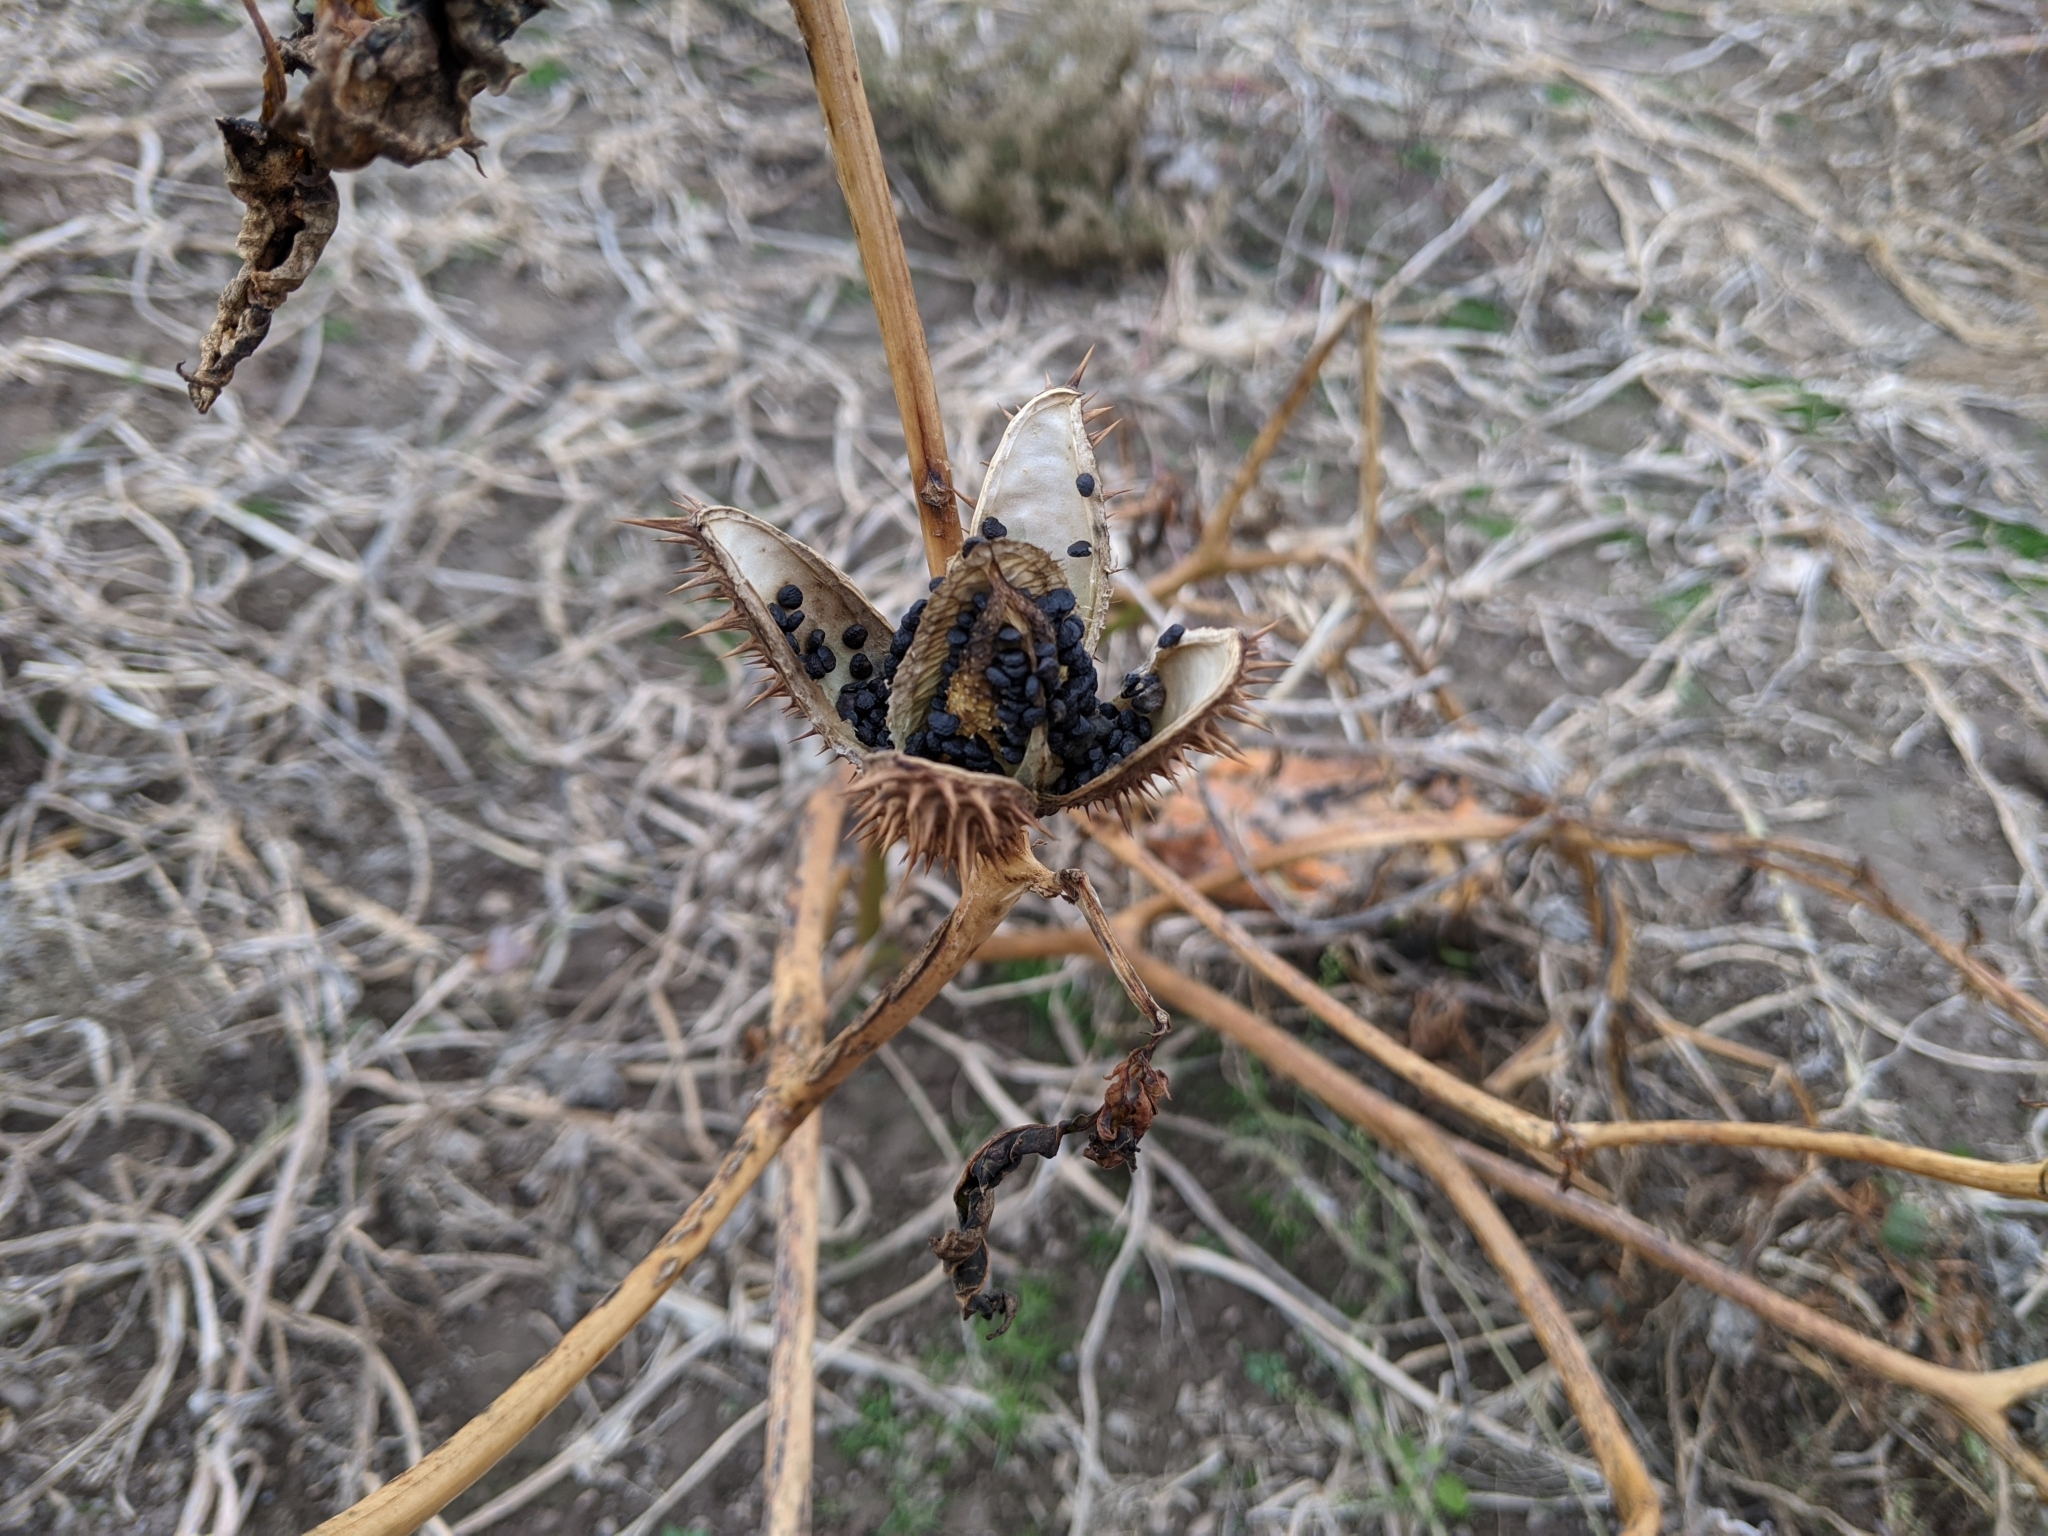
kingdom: Plantae
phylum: Tracheophyta
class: Magnoliopsida
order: Solanales
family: Solanaceae
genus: Datura
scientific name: Datura stramonium
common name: Thorn-apple
